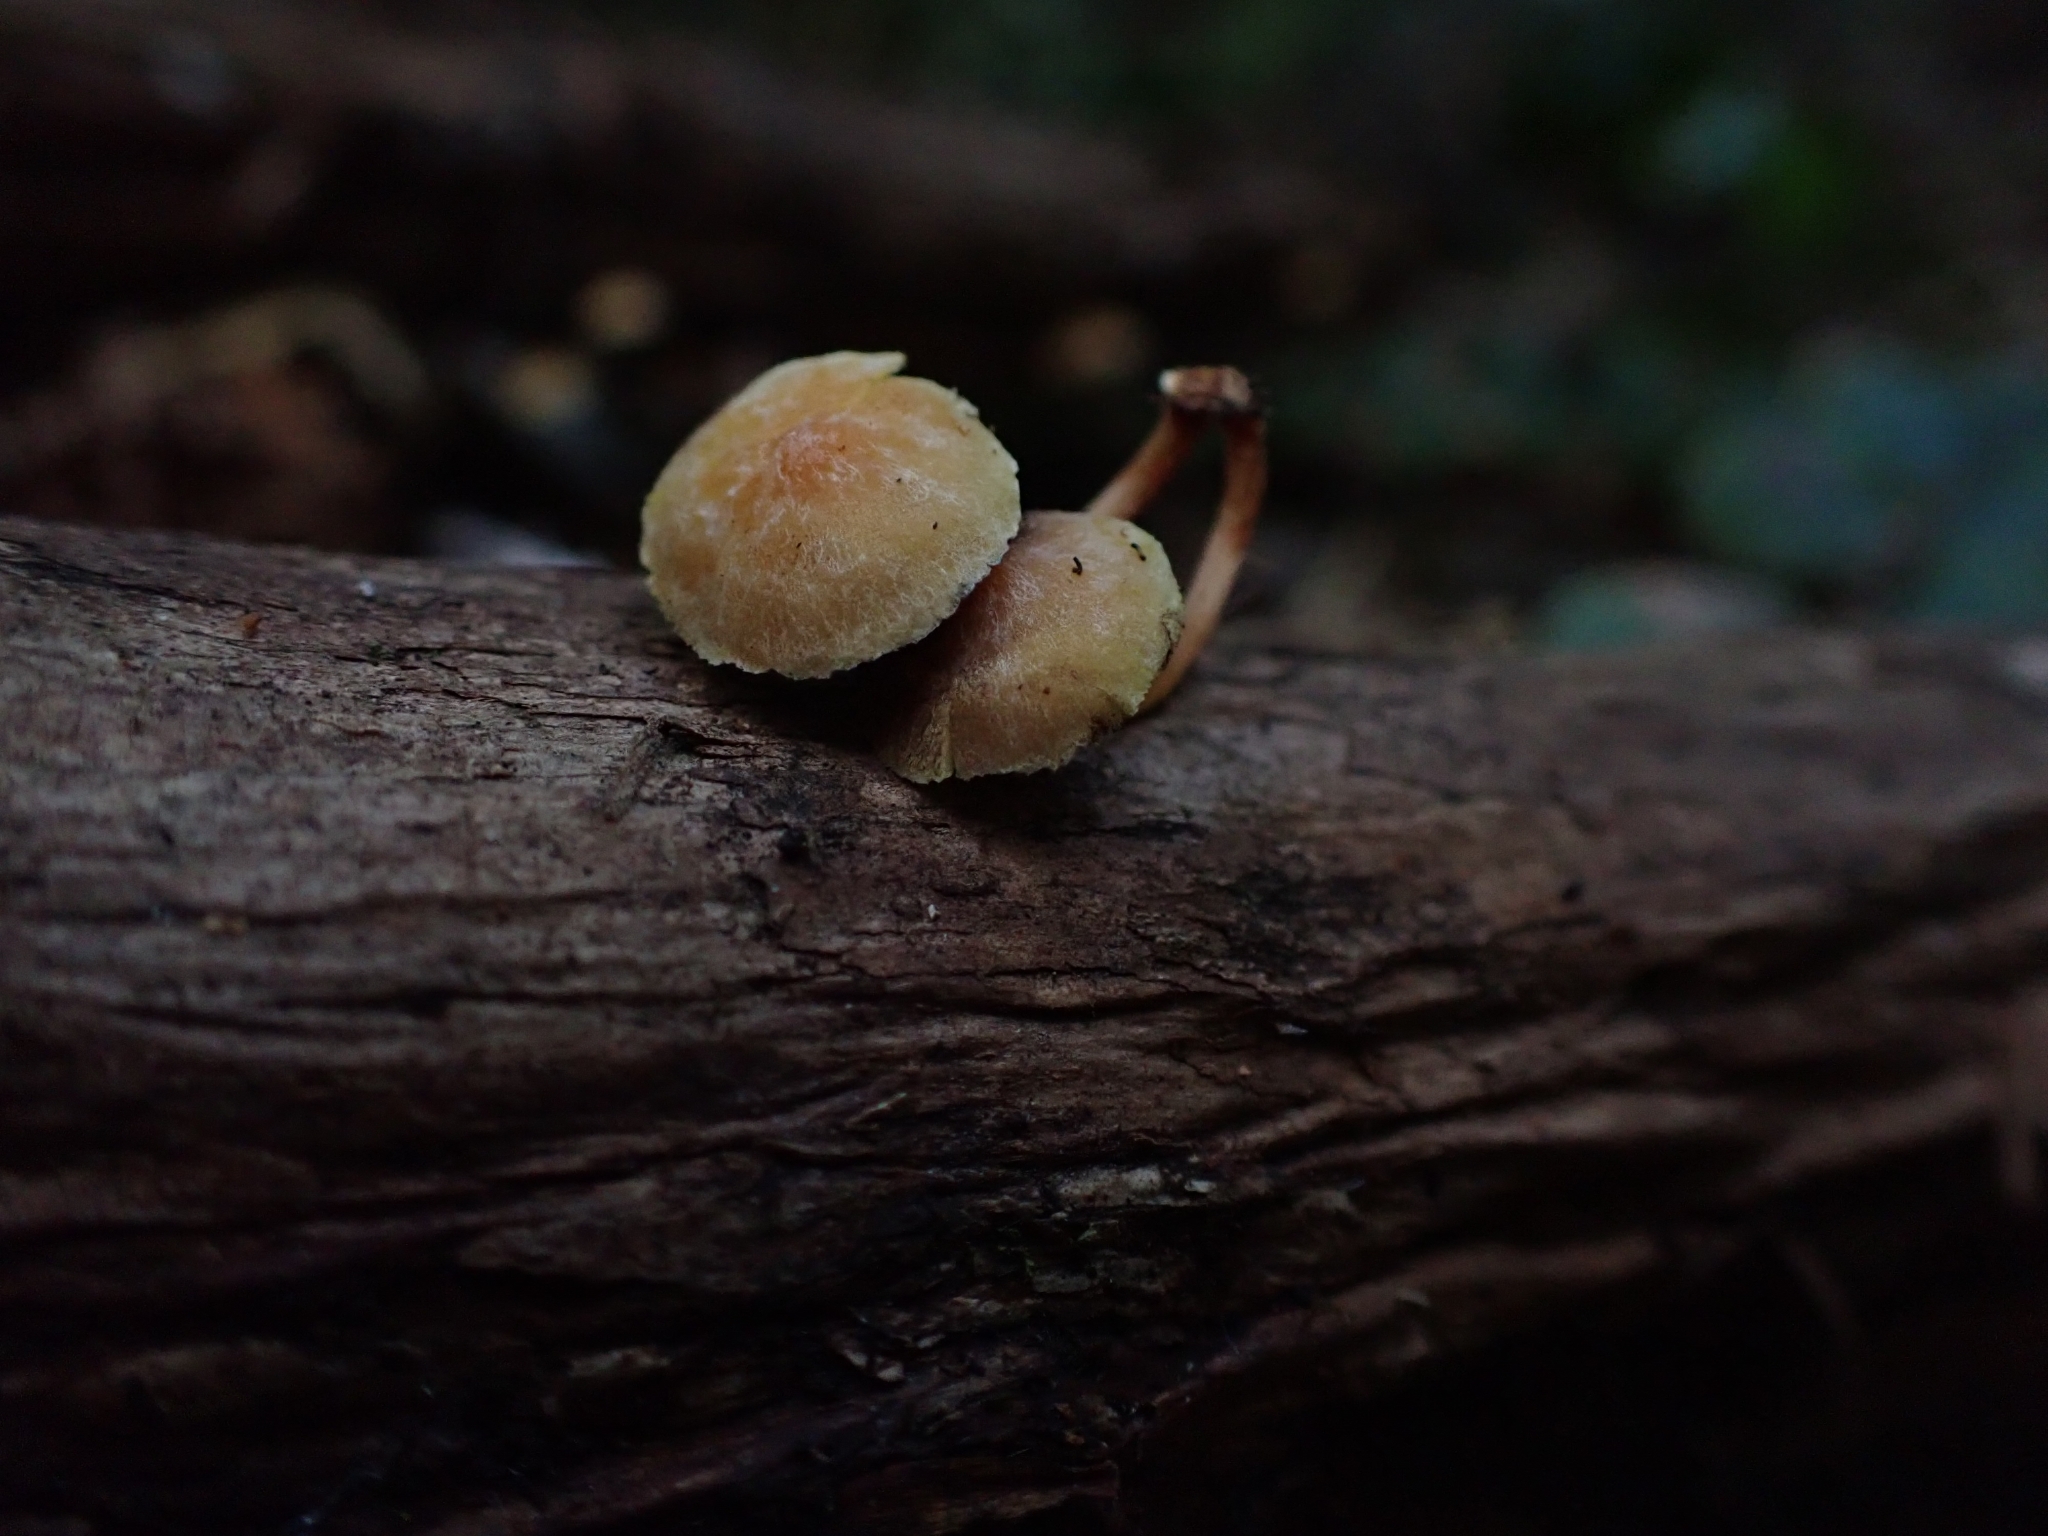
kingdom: Fungi
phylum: Basidiomycota
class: Agaricomycetes
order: Agaricales
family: Strophariaceae
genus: Hypholoma
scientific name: Hypholoma acutum
